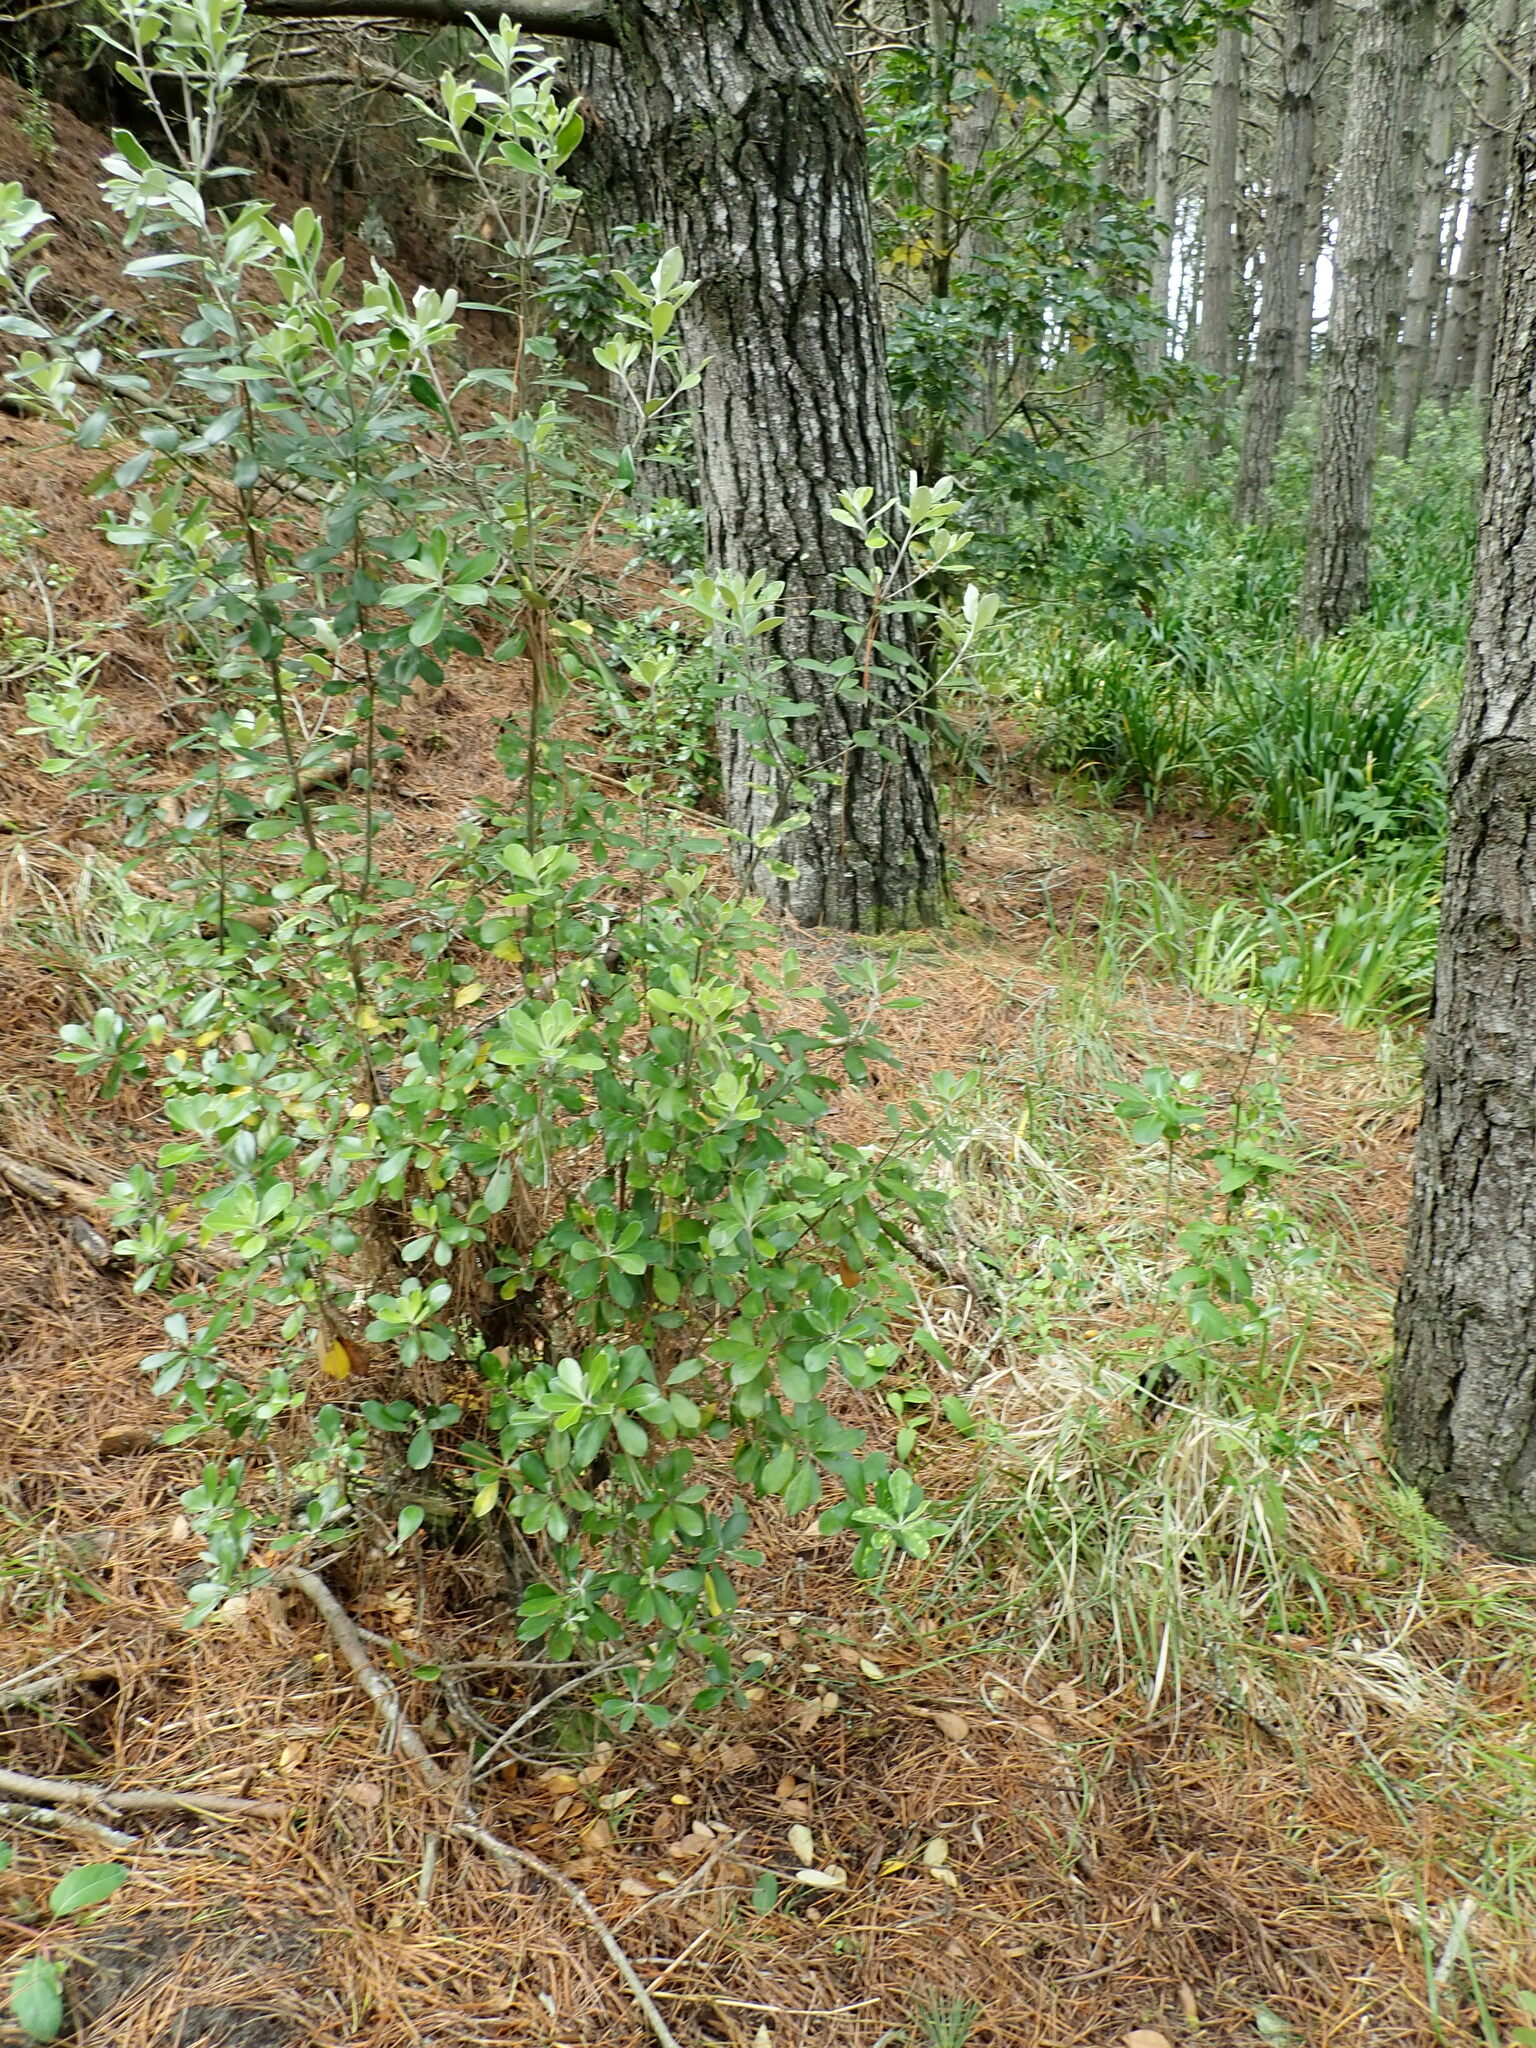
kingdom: Plantae
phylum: Tracheophyta
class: Magnoliopsida
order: Apiales
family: Pittosporaceae
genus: Pittosporum
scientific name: Pittosporum crassifolium
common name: Karo
